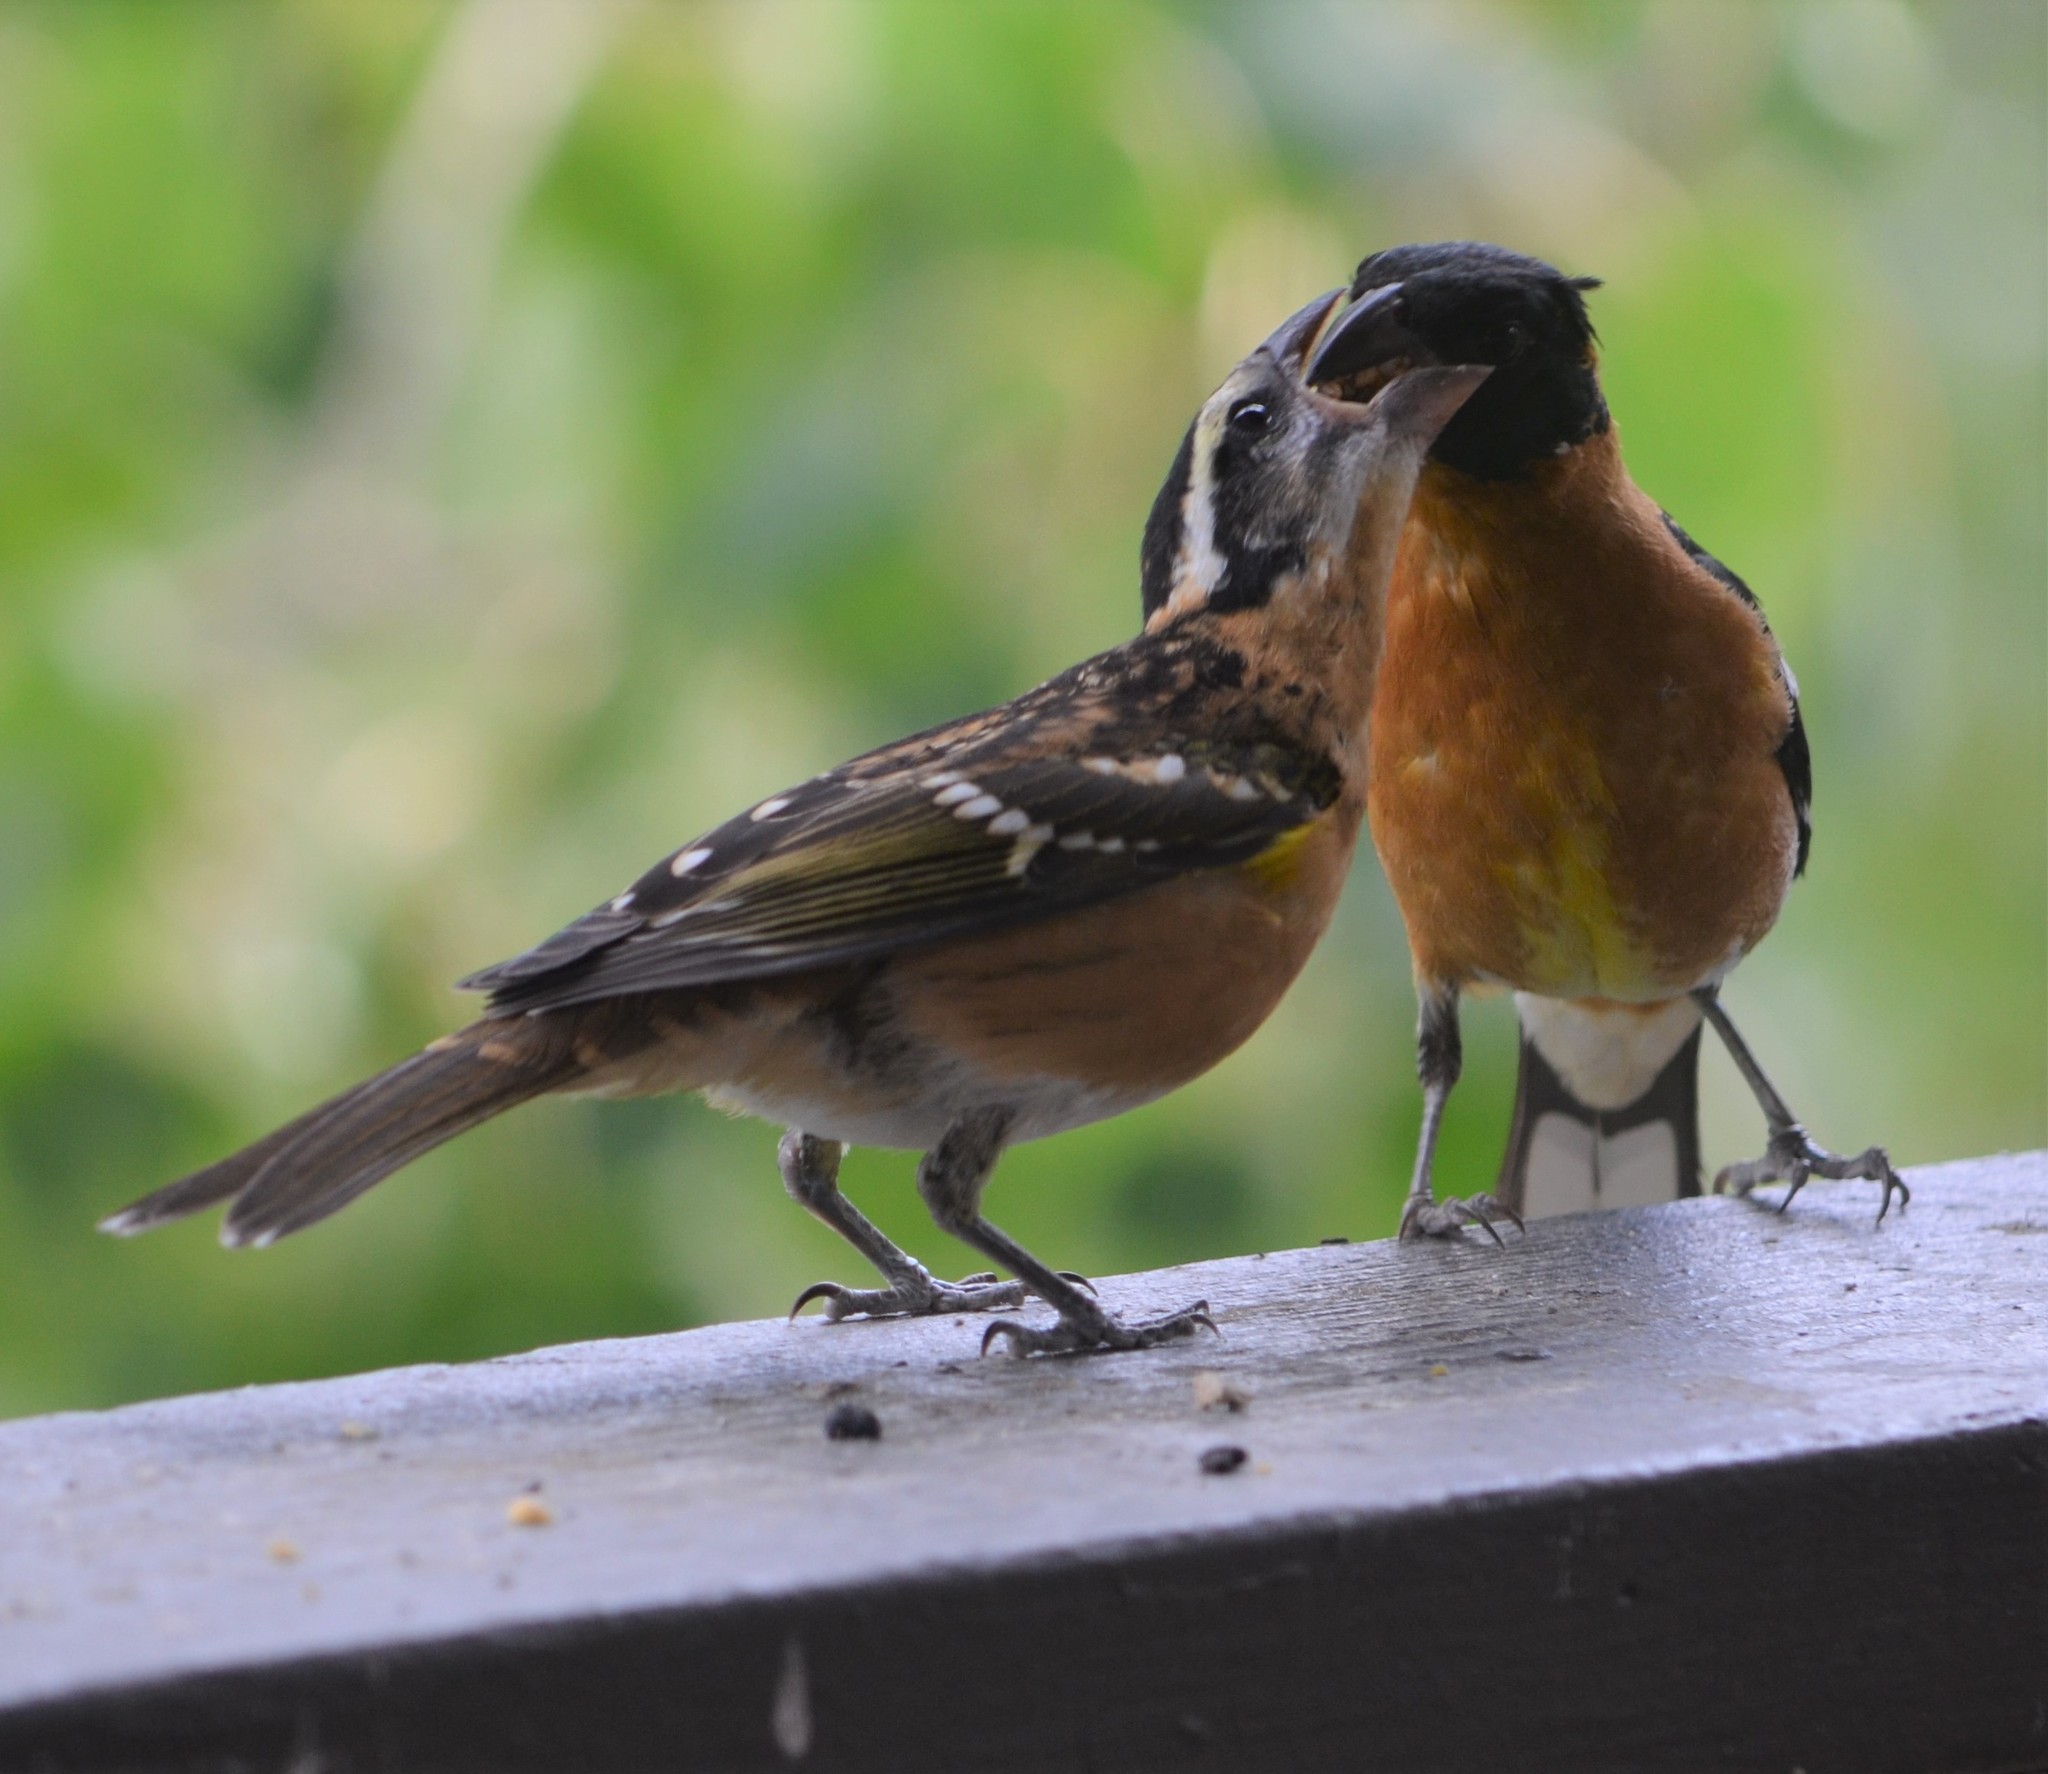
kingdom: Animalia
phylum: Chordata
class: Aves
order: Passeriformes
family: Cardinalidae
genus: Pheucticus
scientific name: Pheucticus melanocephalus
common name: Black-headed grosbeak
